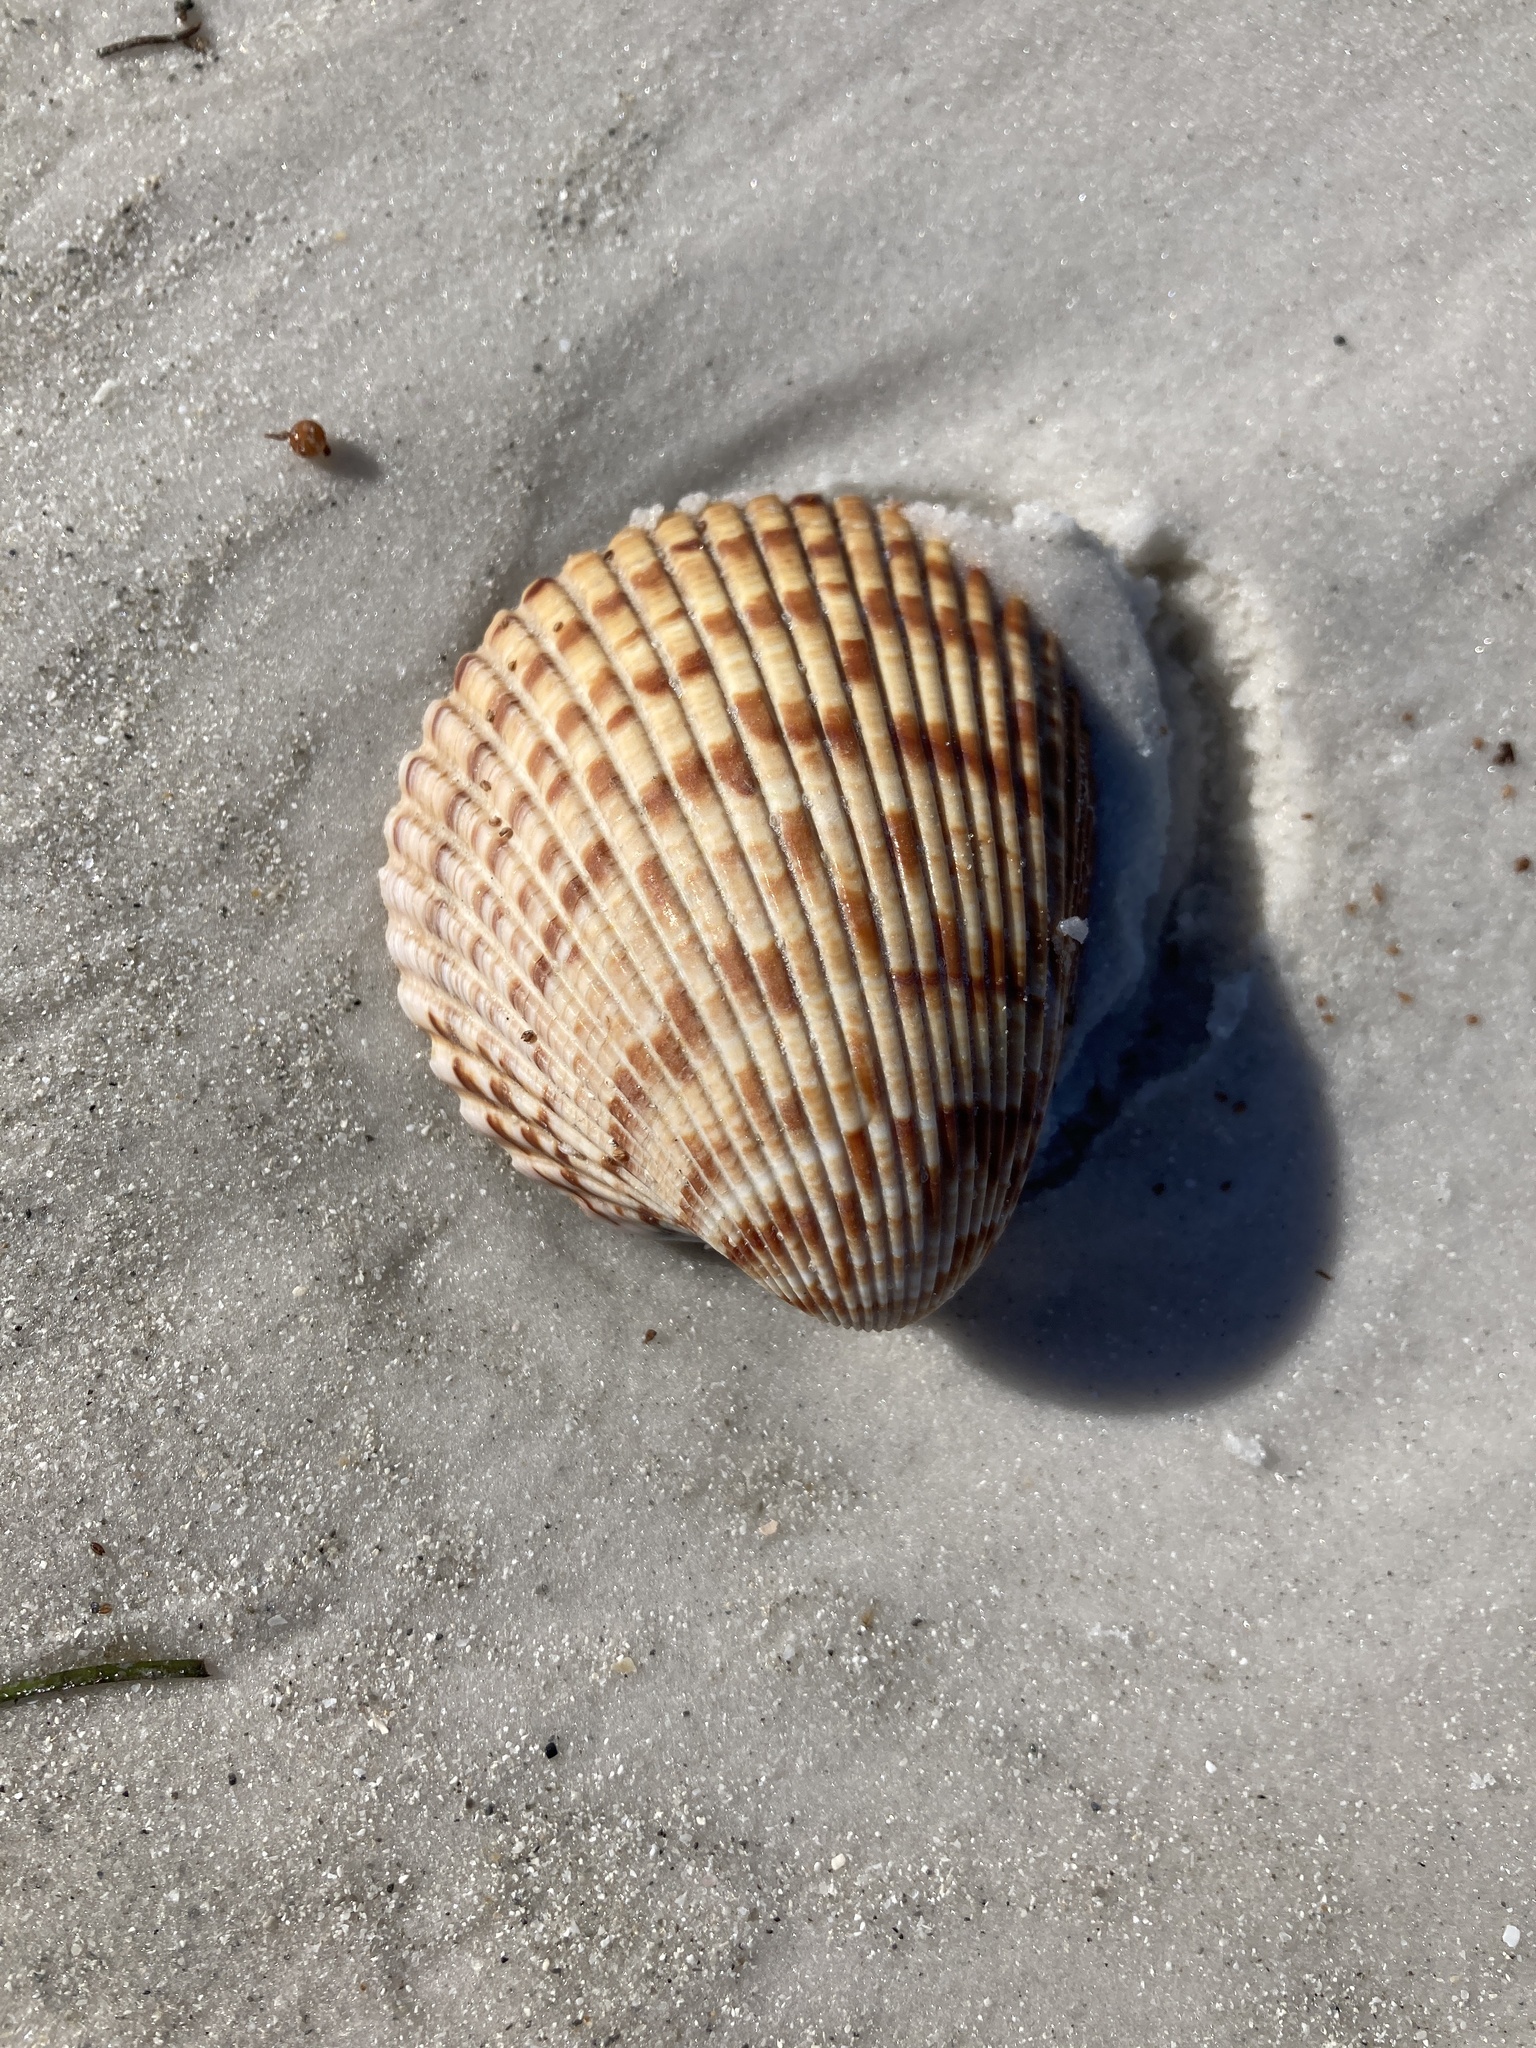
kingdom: Animalia
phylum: Mollusca
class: Bivalvia
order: Cardiida
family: Cardiidae
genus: Dinocardium
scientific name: Dinocardium robustum
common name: Atlantic giant cockle
